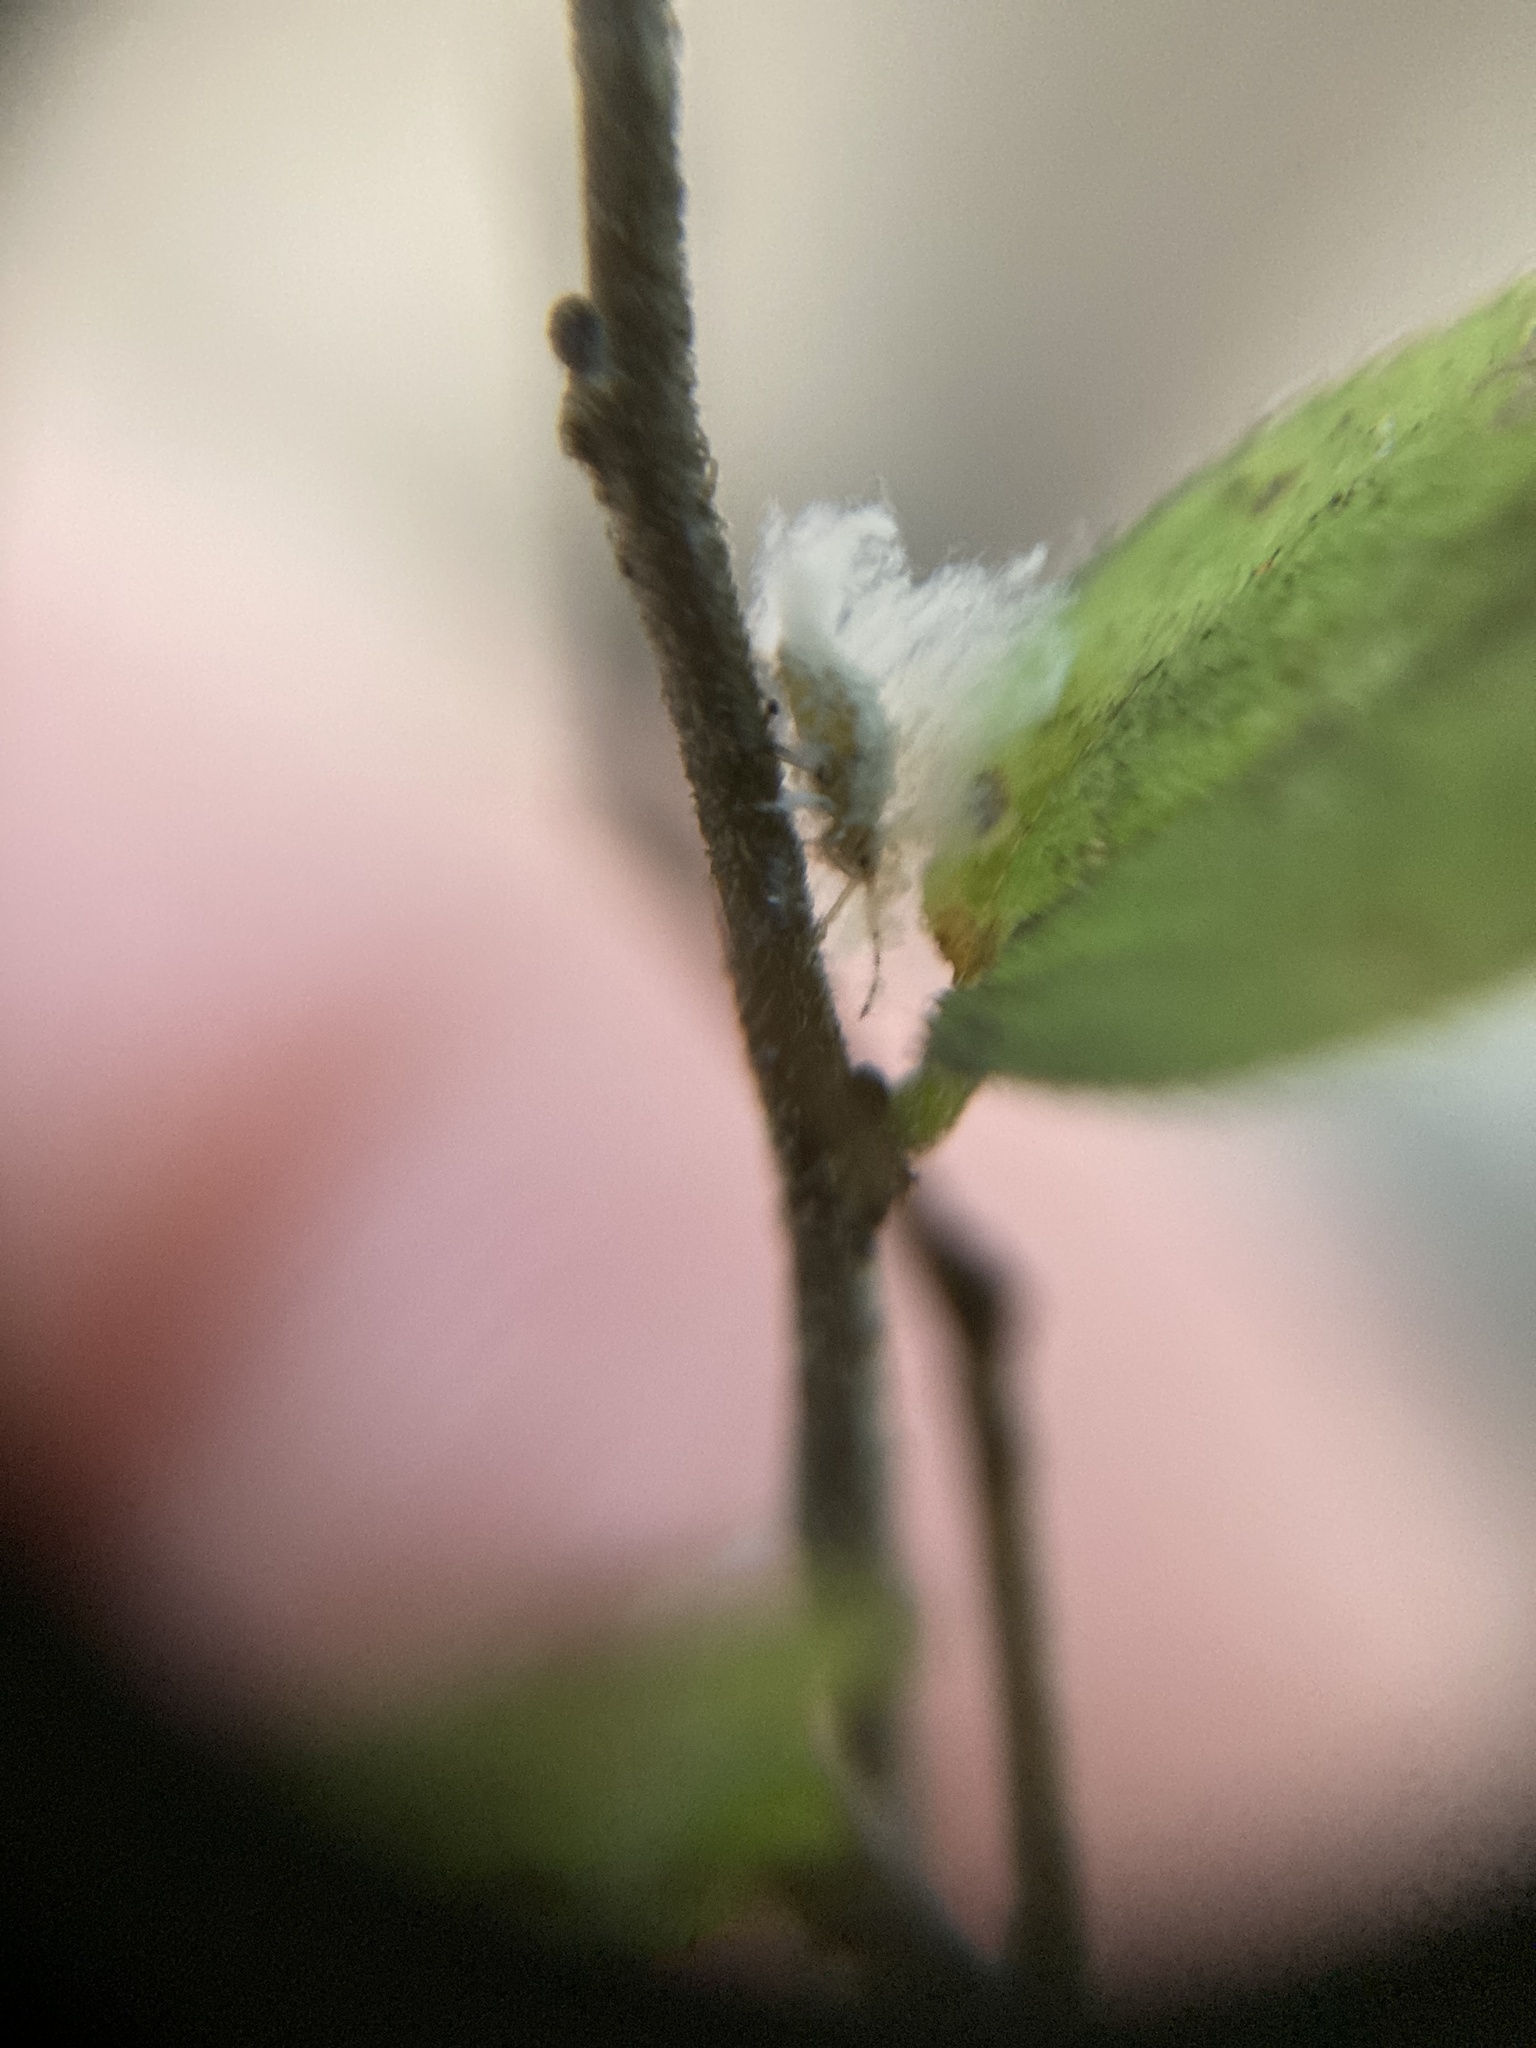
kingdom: Animalia
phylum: Arthropoda
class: Insecta
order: Hemiptera
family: Aphididae
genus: Shivaphis
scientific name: Shivaphis celti
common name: Asian wooly hackberry aphid
